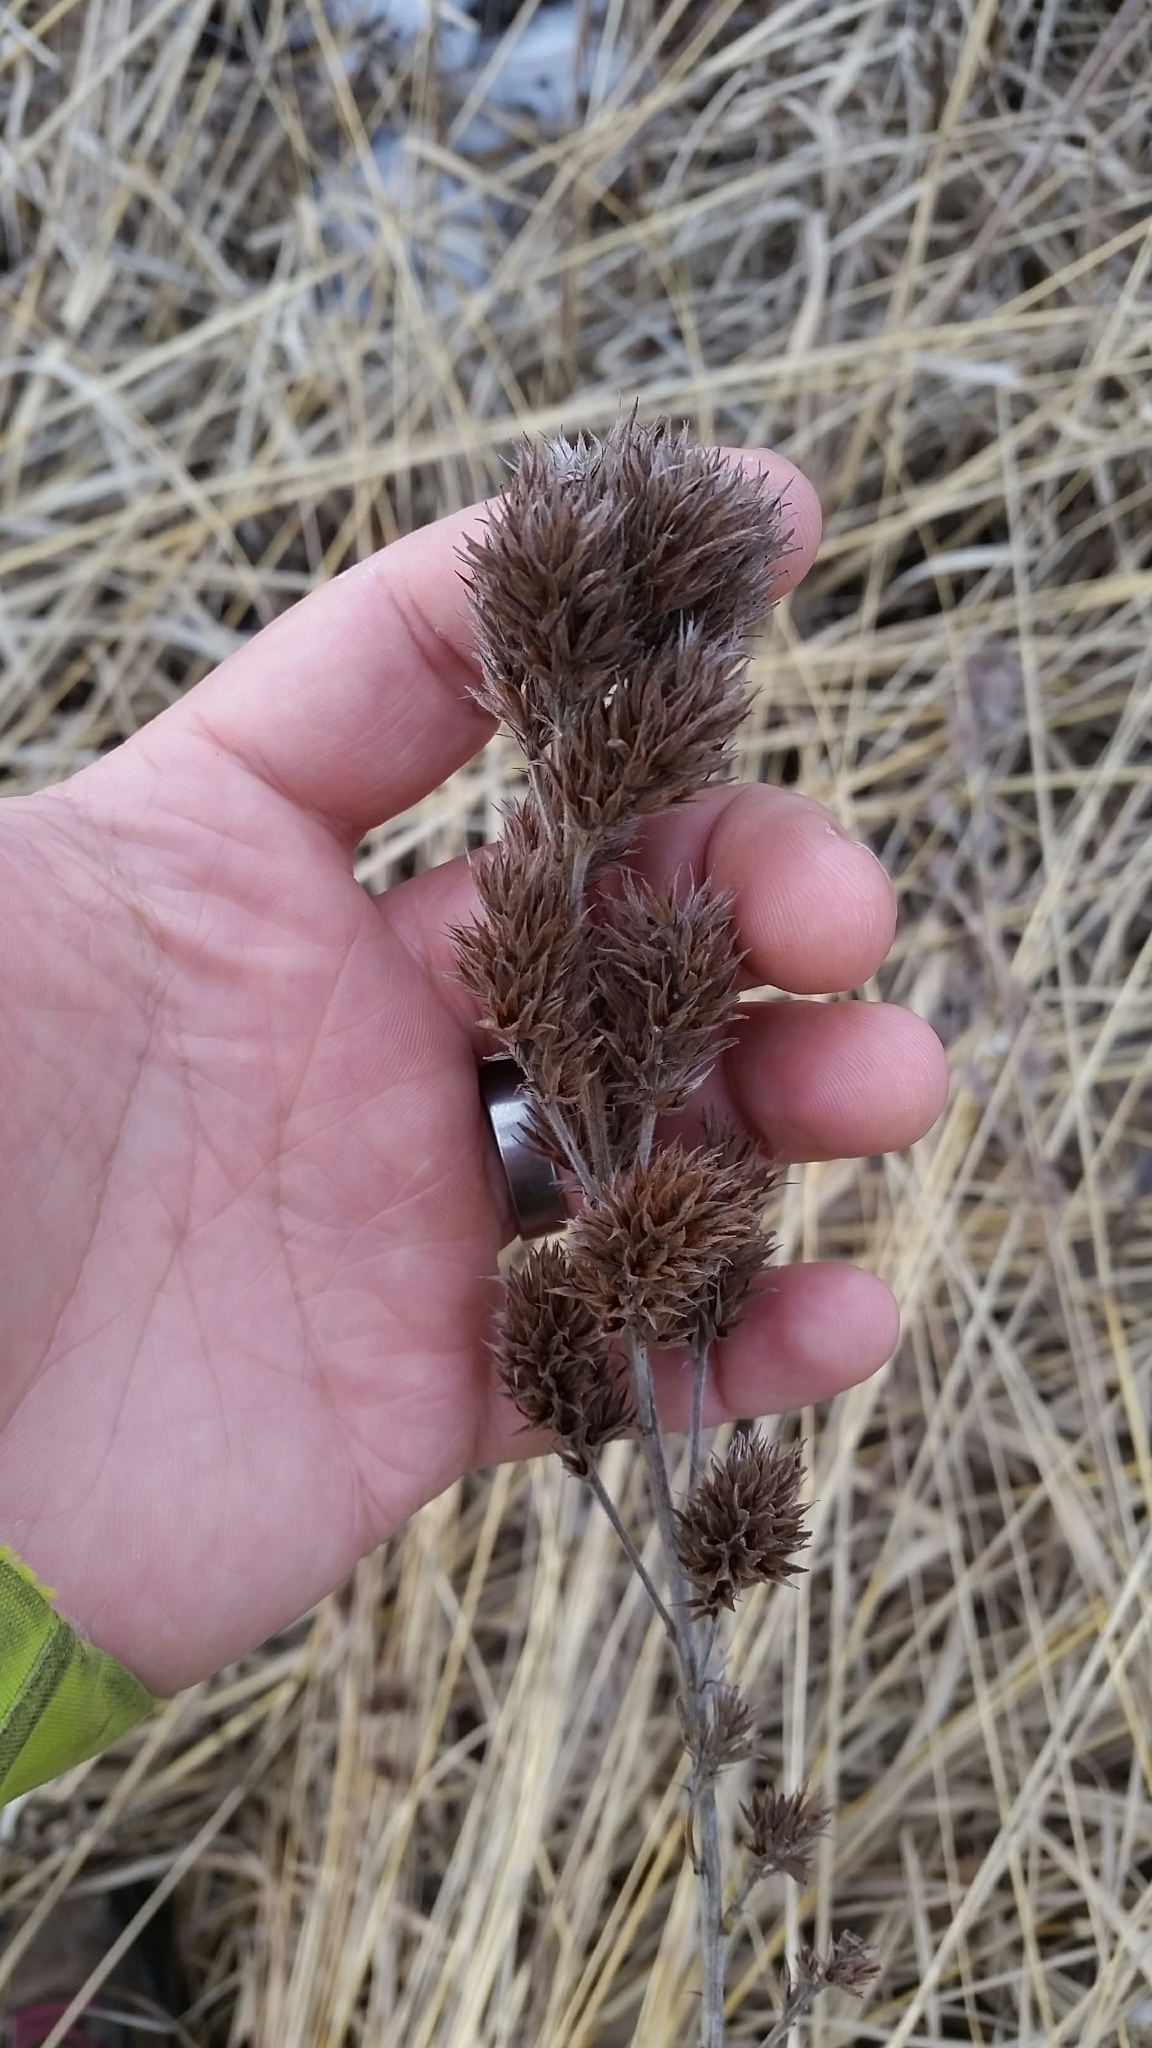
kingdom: Plantae
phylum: Tracheophyta
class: Magnoliopsida
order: Fabales
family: Fabaceae
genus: Lespedeza
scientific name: Lespedeza capitata
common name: Dusty clover
